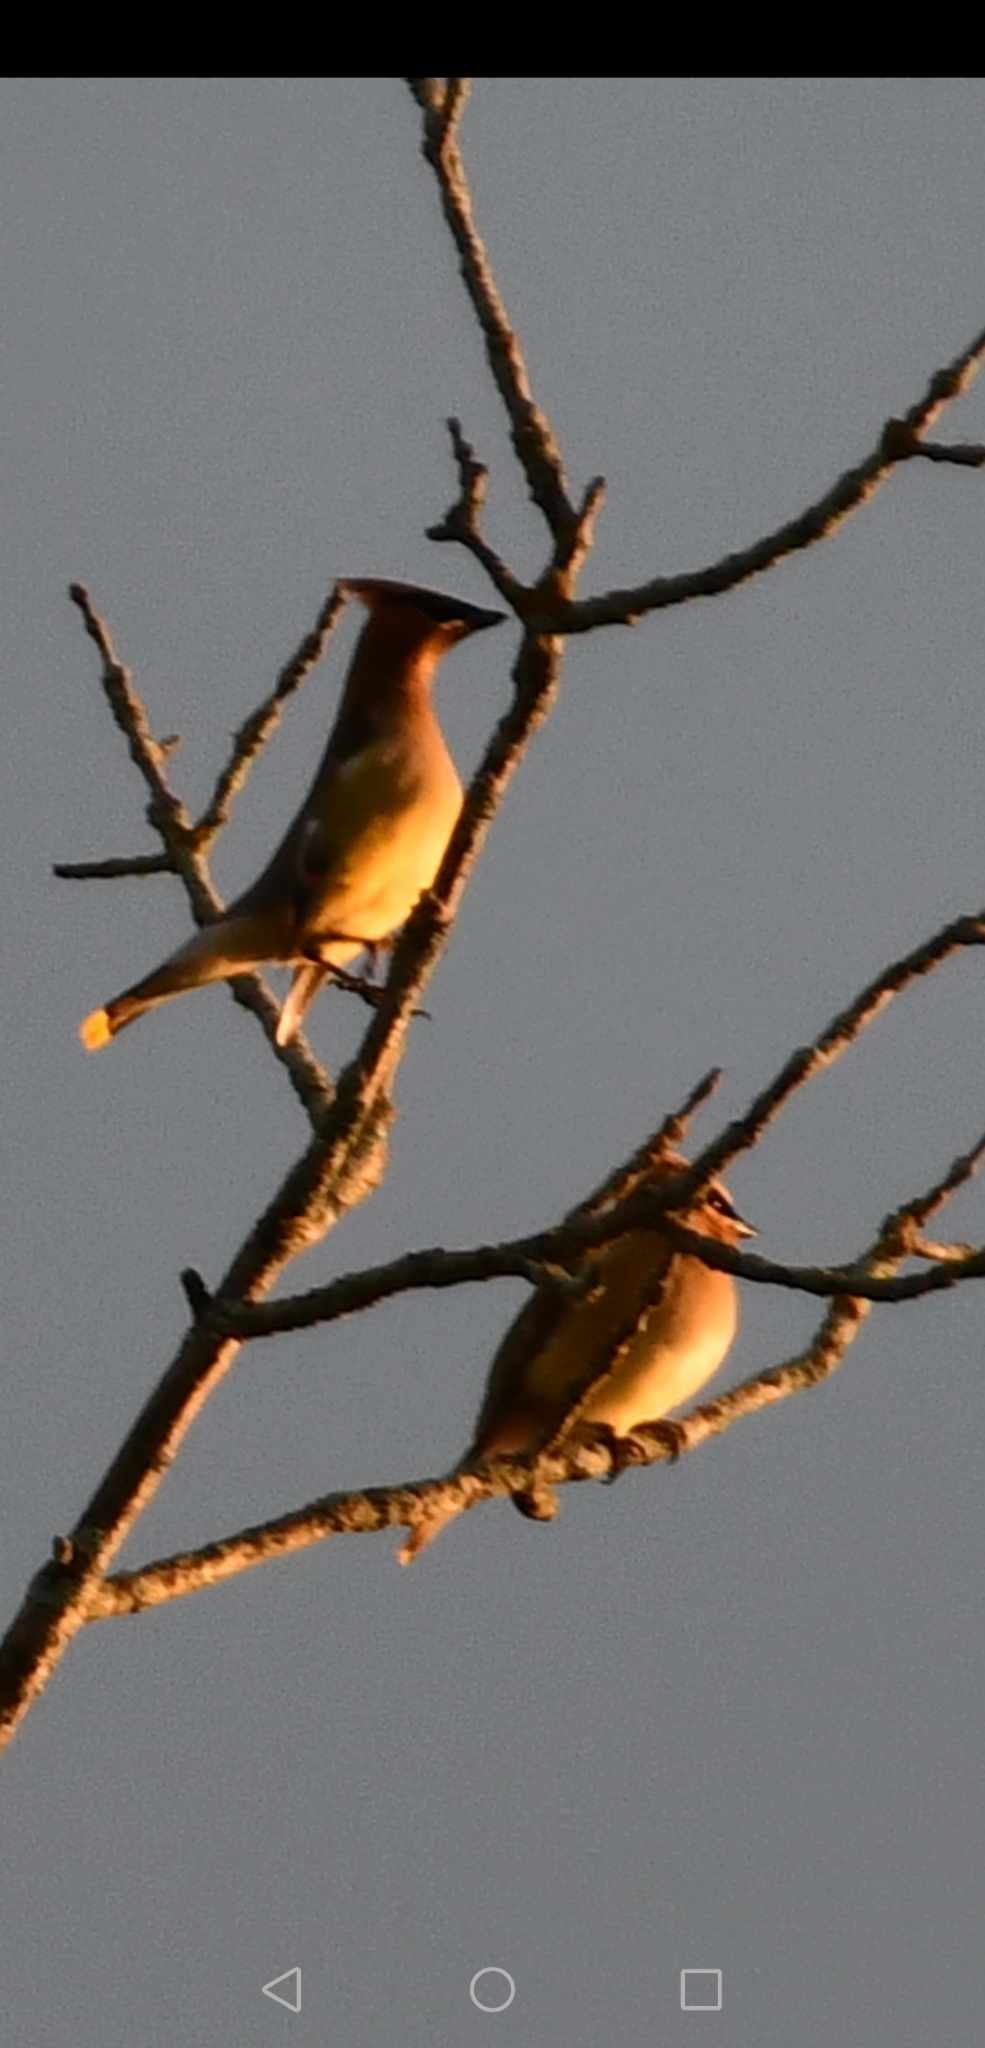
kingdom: Animalia
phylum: Chordata
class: Aves
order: Passeriformes
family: Bombycillidae
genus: Bombycilla
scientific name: Bombycilla cedrorum
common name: Cedar waxwing
